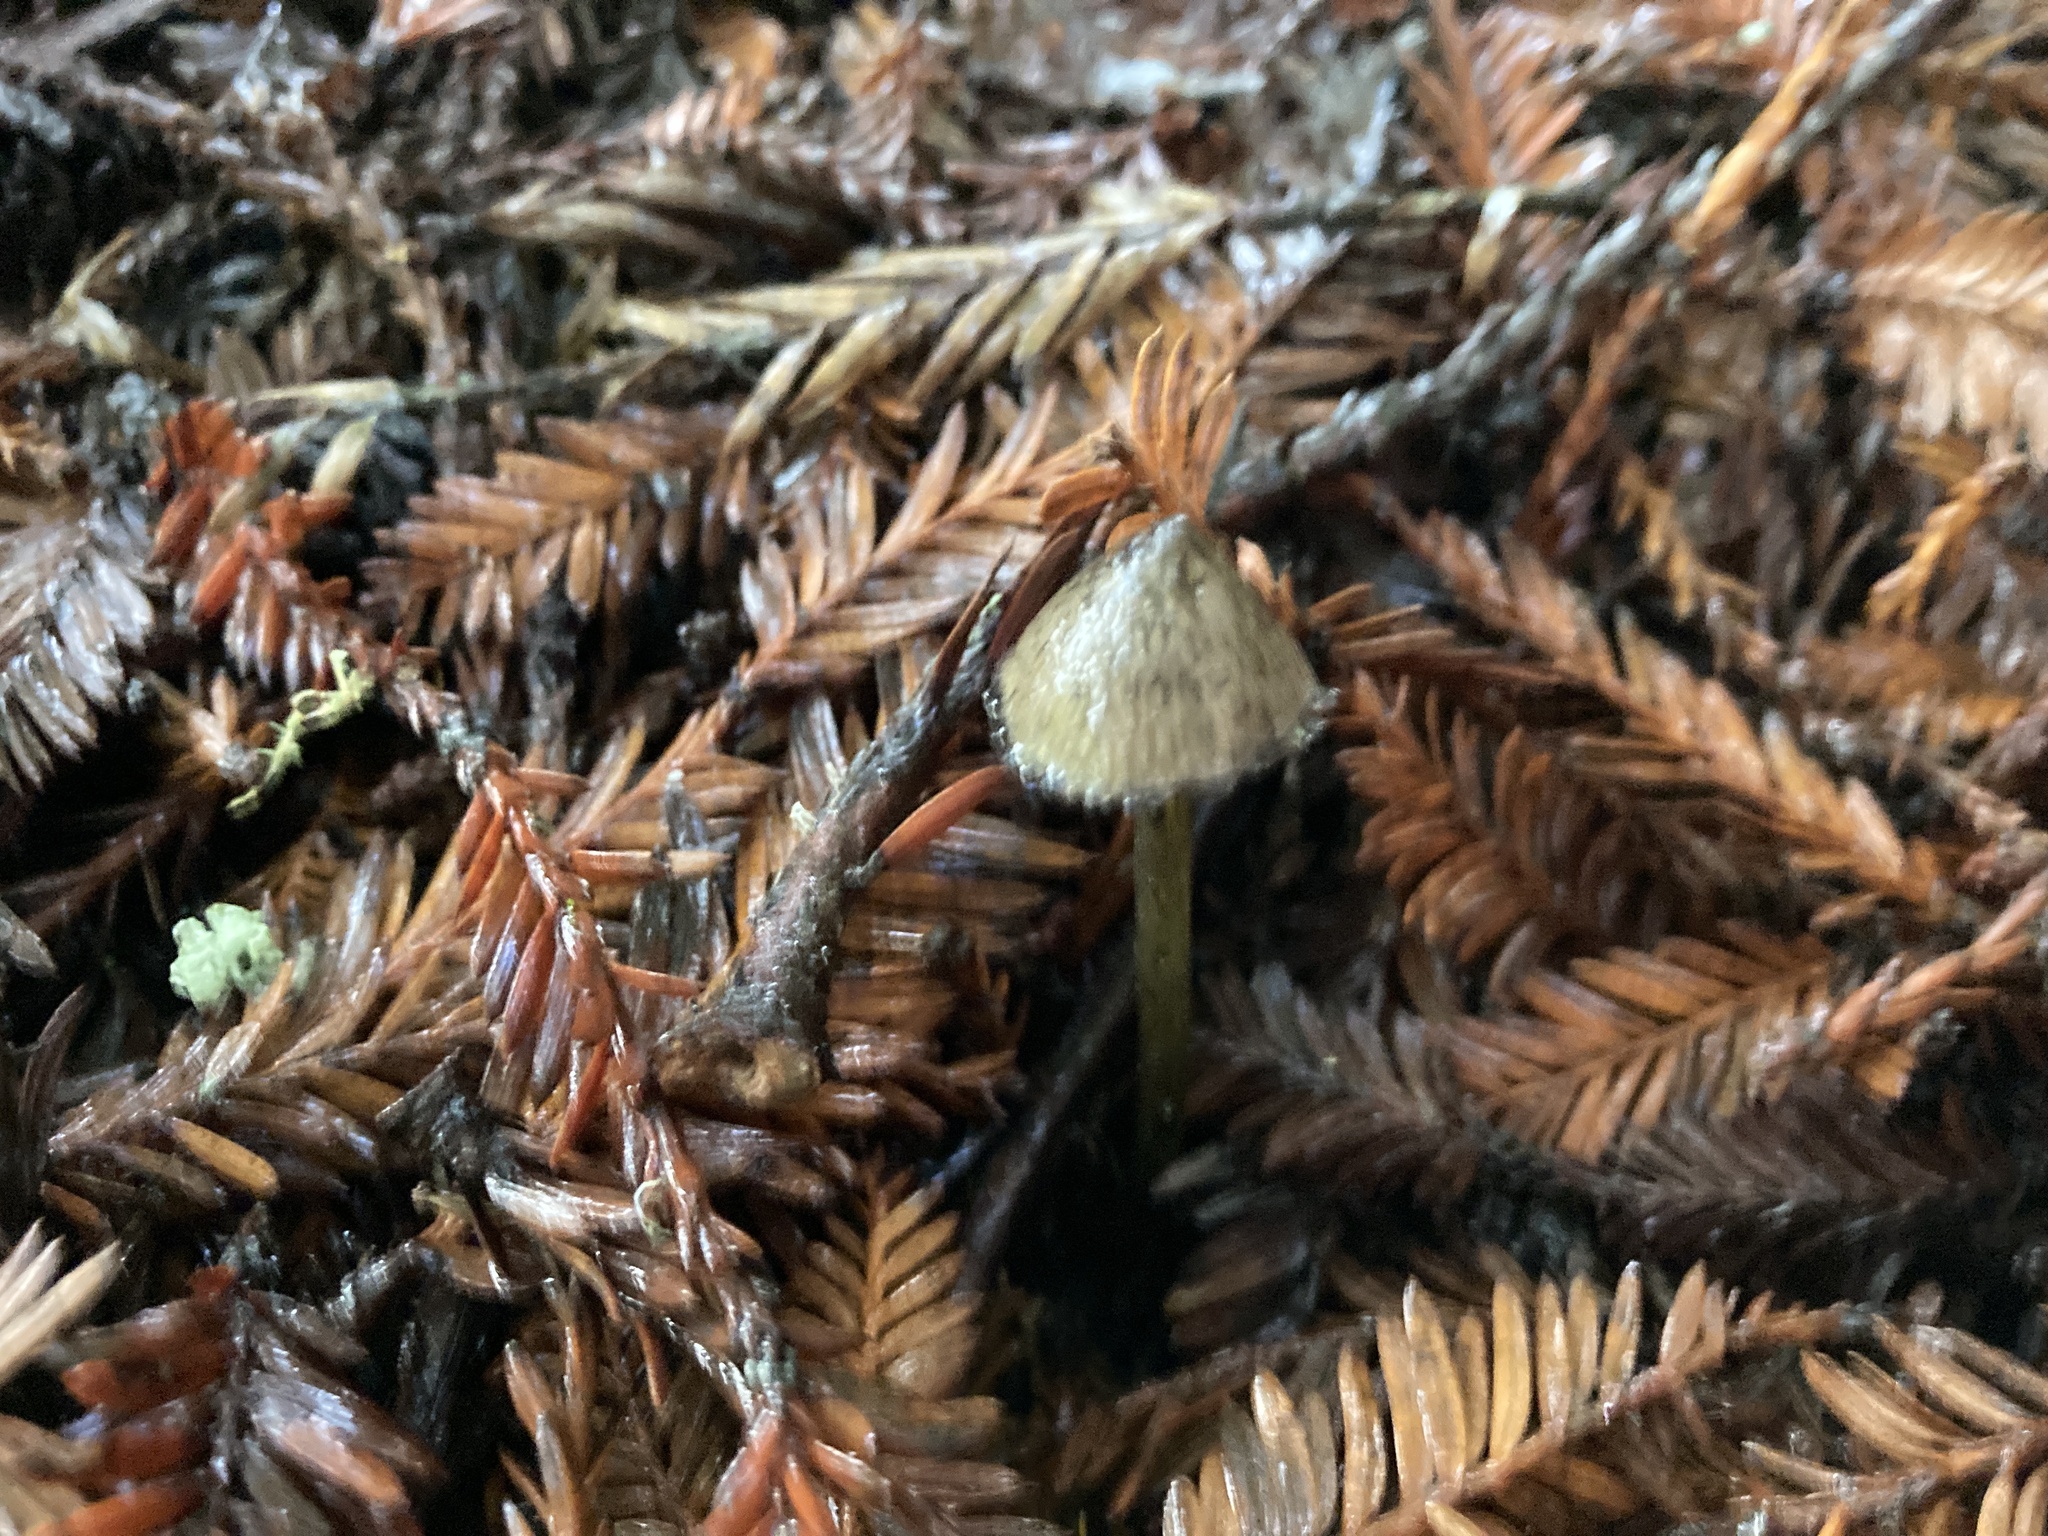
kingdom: Fungi
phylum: Basidiomycota
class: Agaricomycetes
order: Agaricales
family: Hygrophoraceae
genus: Hygrocybe
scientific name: Hygrocybe astatogala
